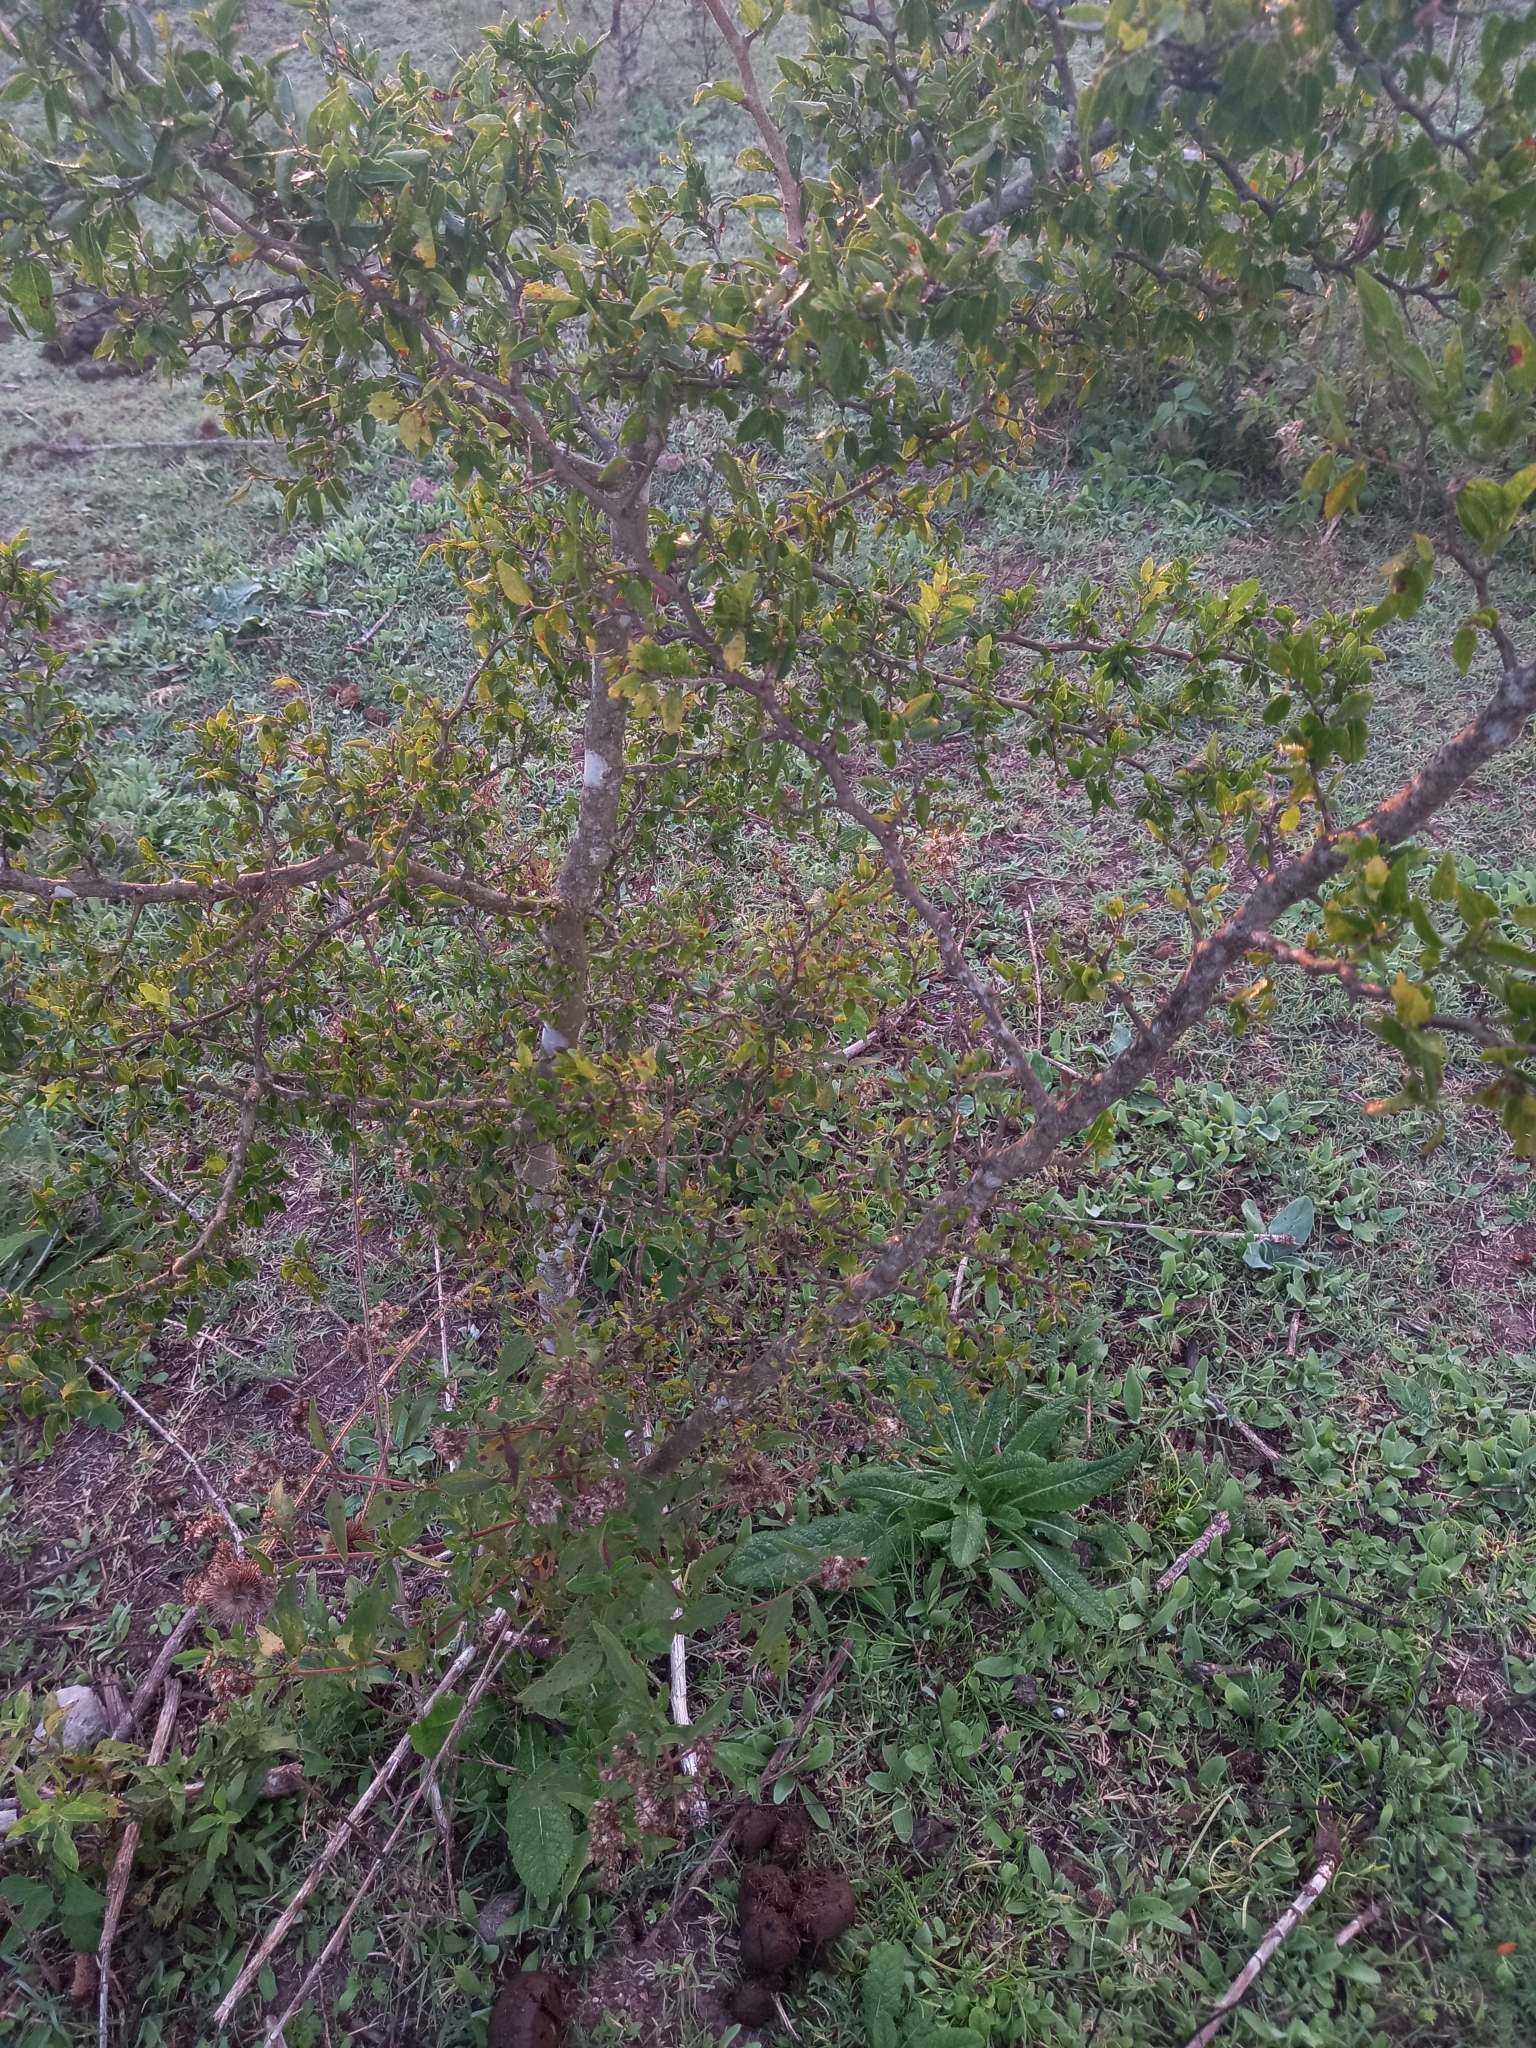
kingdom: Plantae
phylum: Tracheophyta
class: Magnoliopsida
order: Rosales
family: Cannabaceae
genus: Celtis
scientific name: Celtis pallida
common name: Desert hackberry
